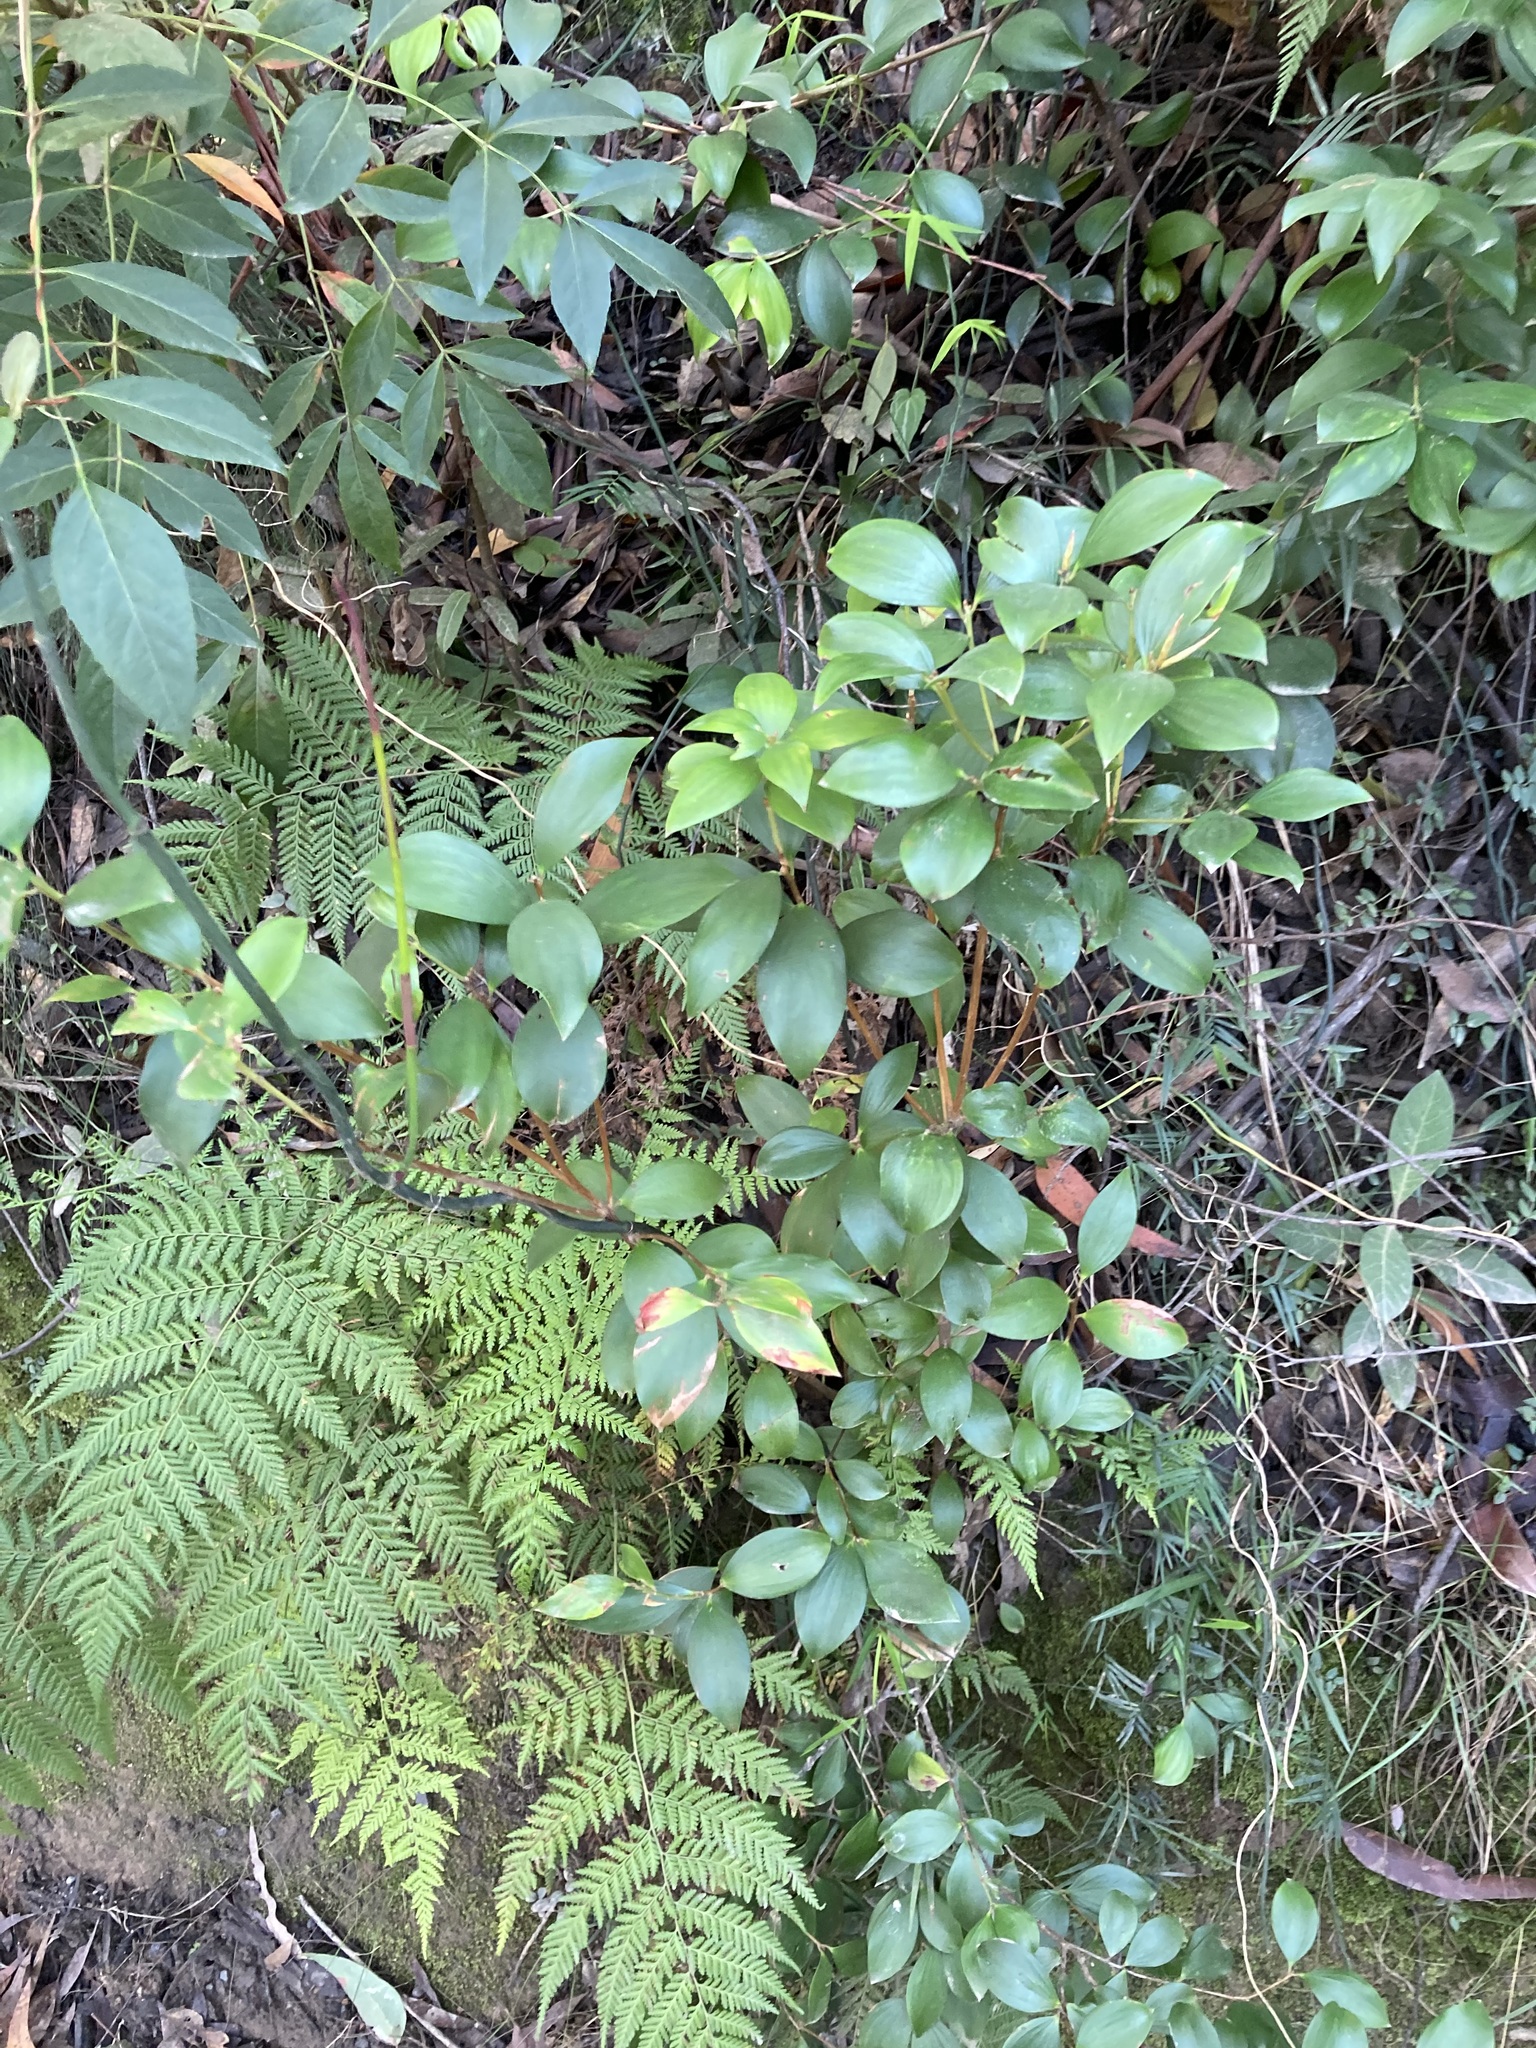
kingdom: Plantae
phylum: Tracheophyta
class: Magnoliopsida
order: Ericales
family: Ericaceae
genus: Trochocarpa
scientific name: Trochocarpa laurina
